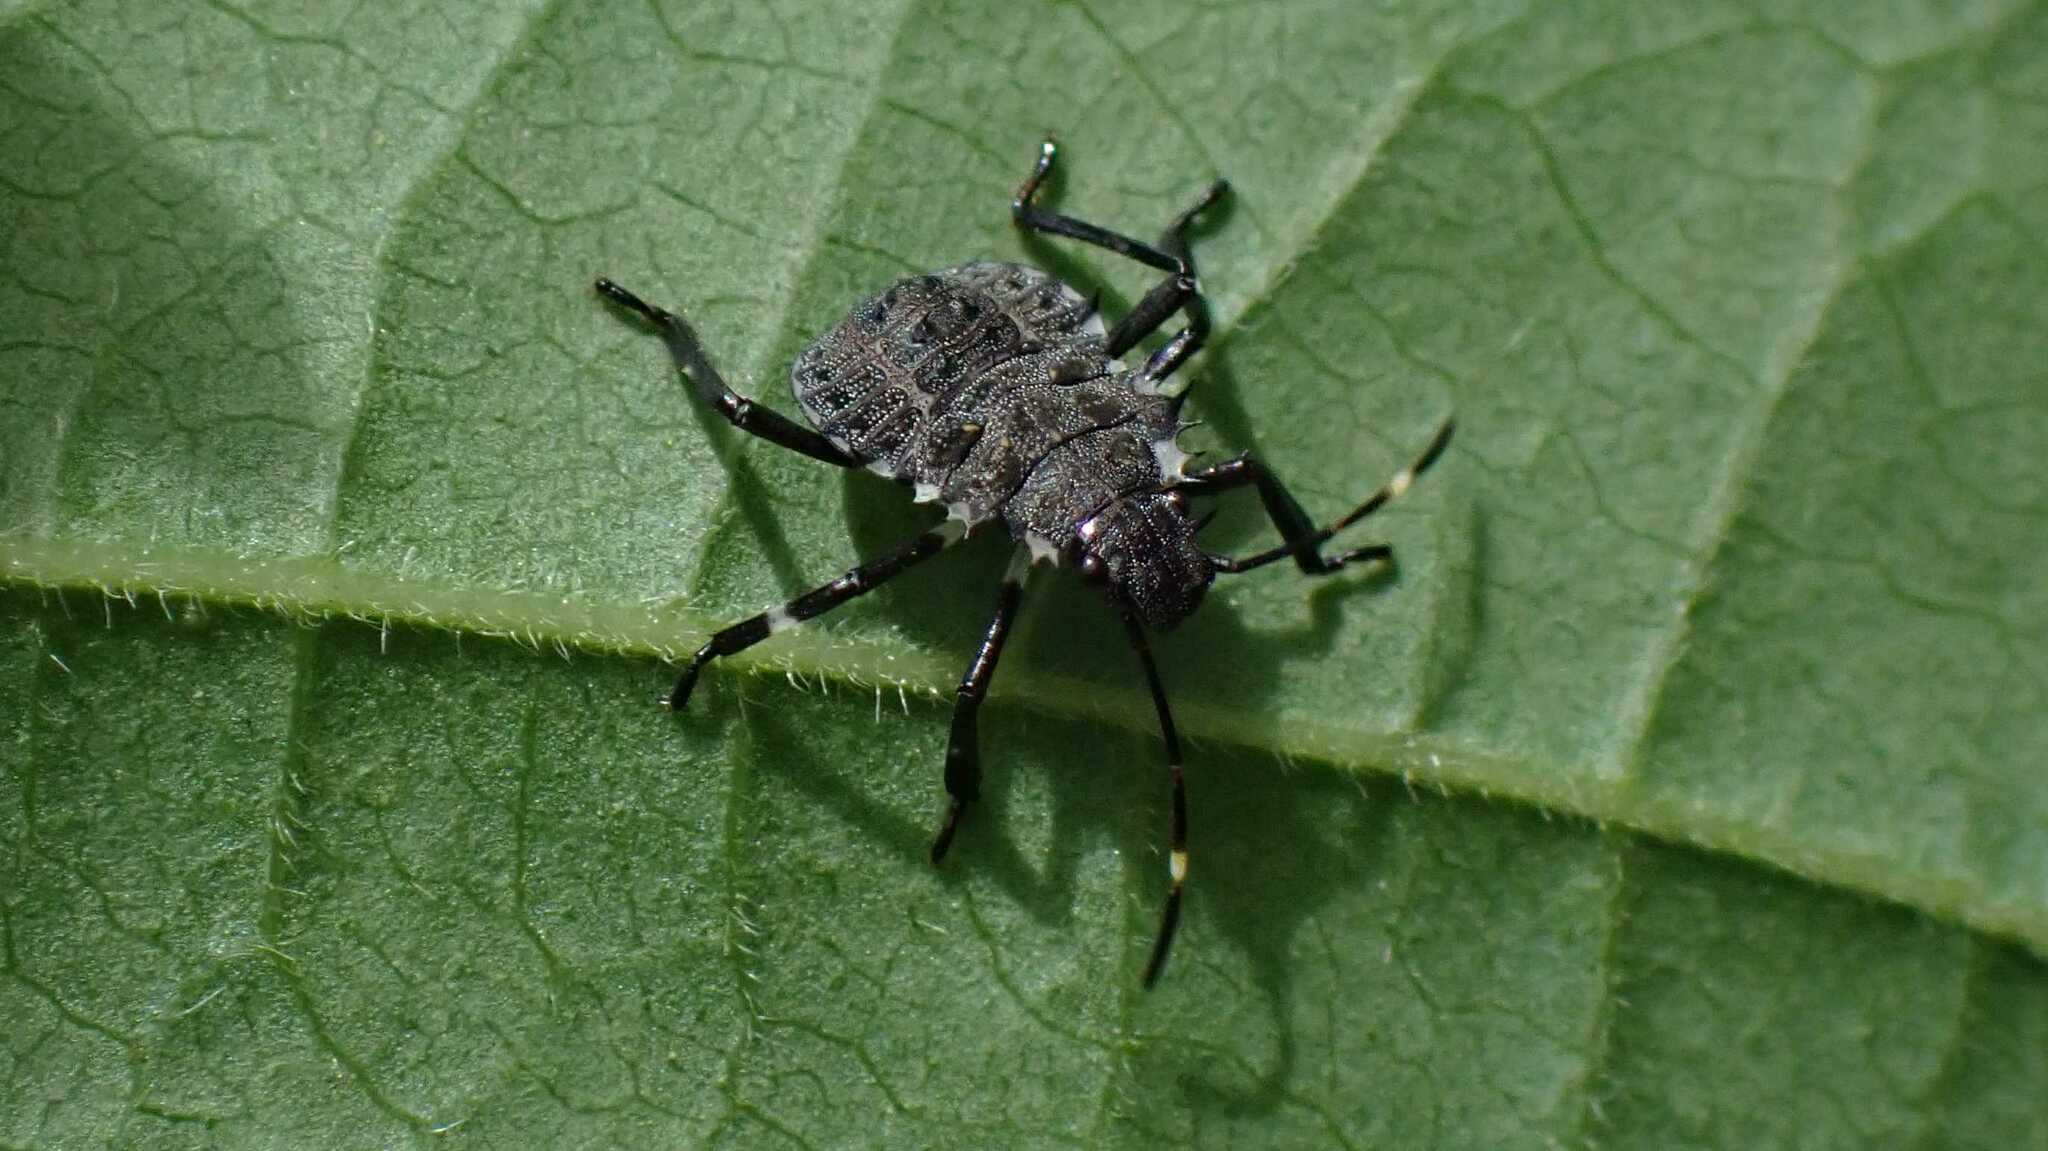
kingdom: Animalia
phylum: Arthropoda
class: Insecta
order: Hemiptera
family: Pentatomidae
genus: Halyomorpha
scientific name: Halyomorpha halys
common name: Brown marmorated stink bug
